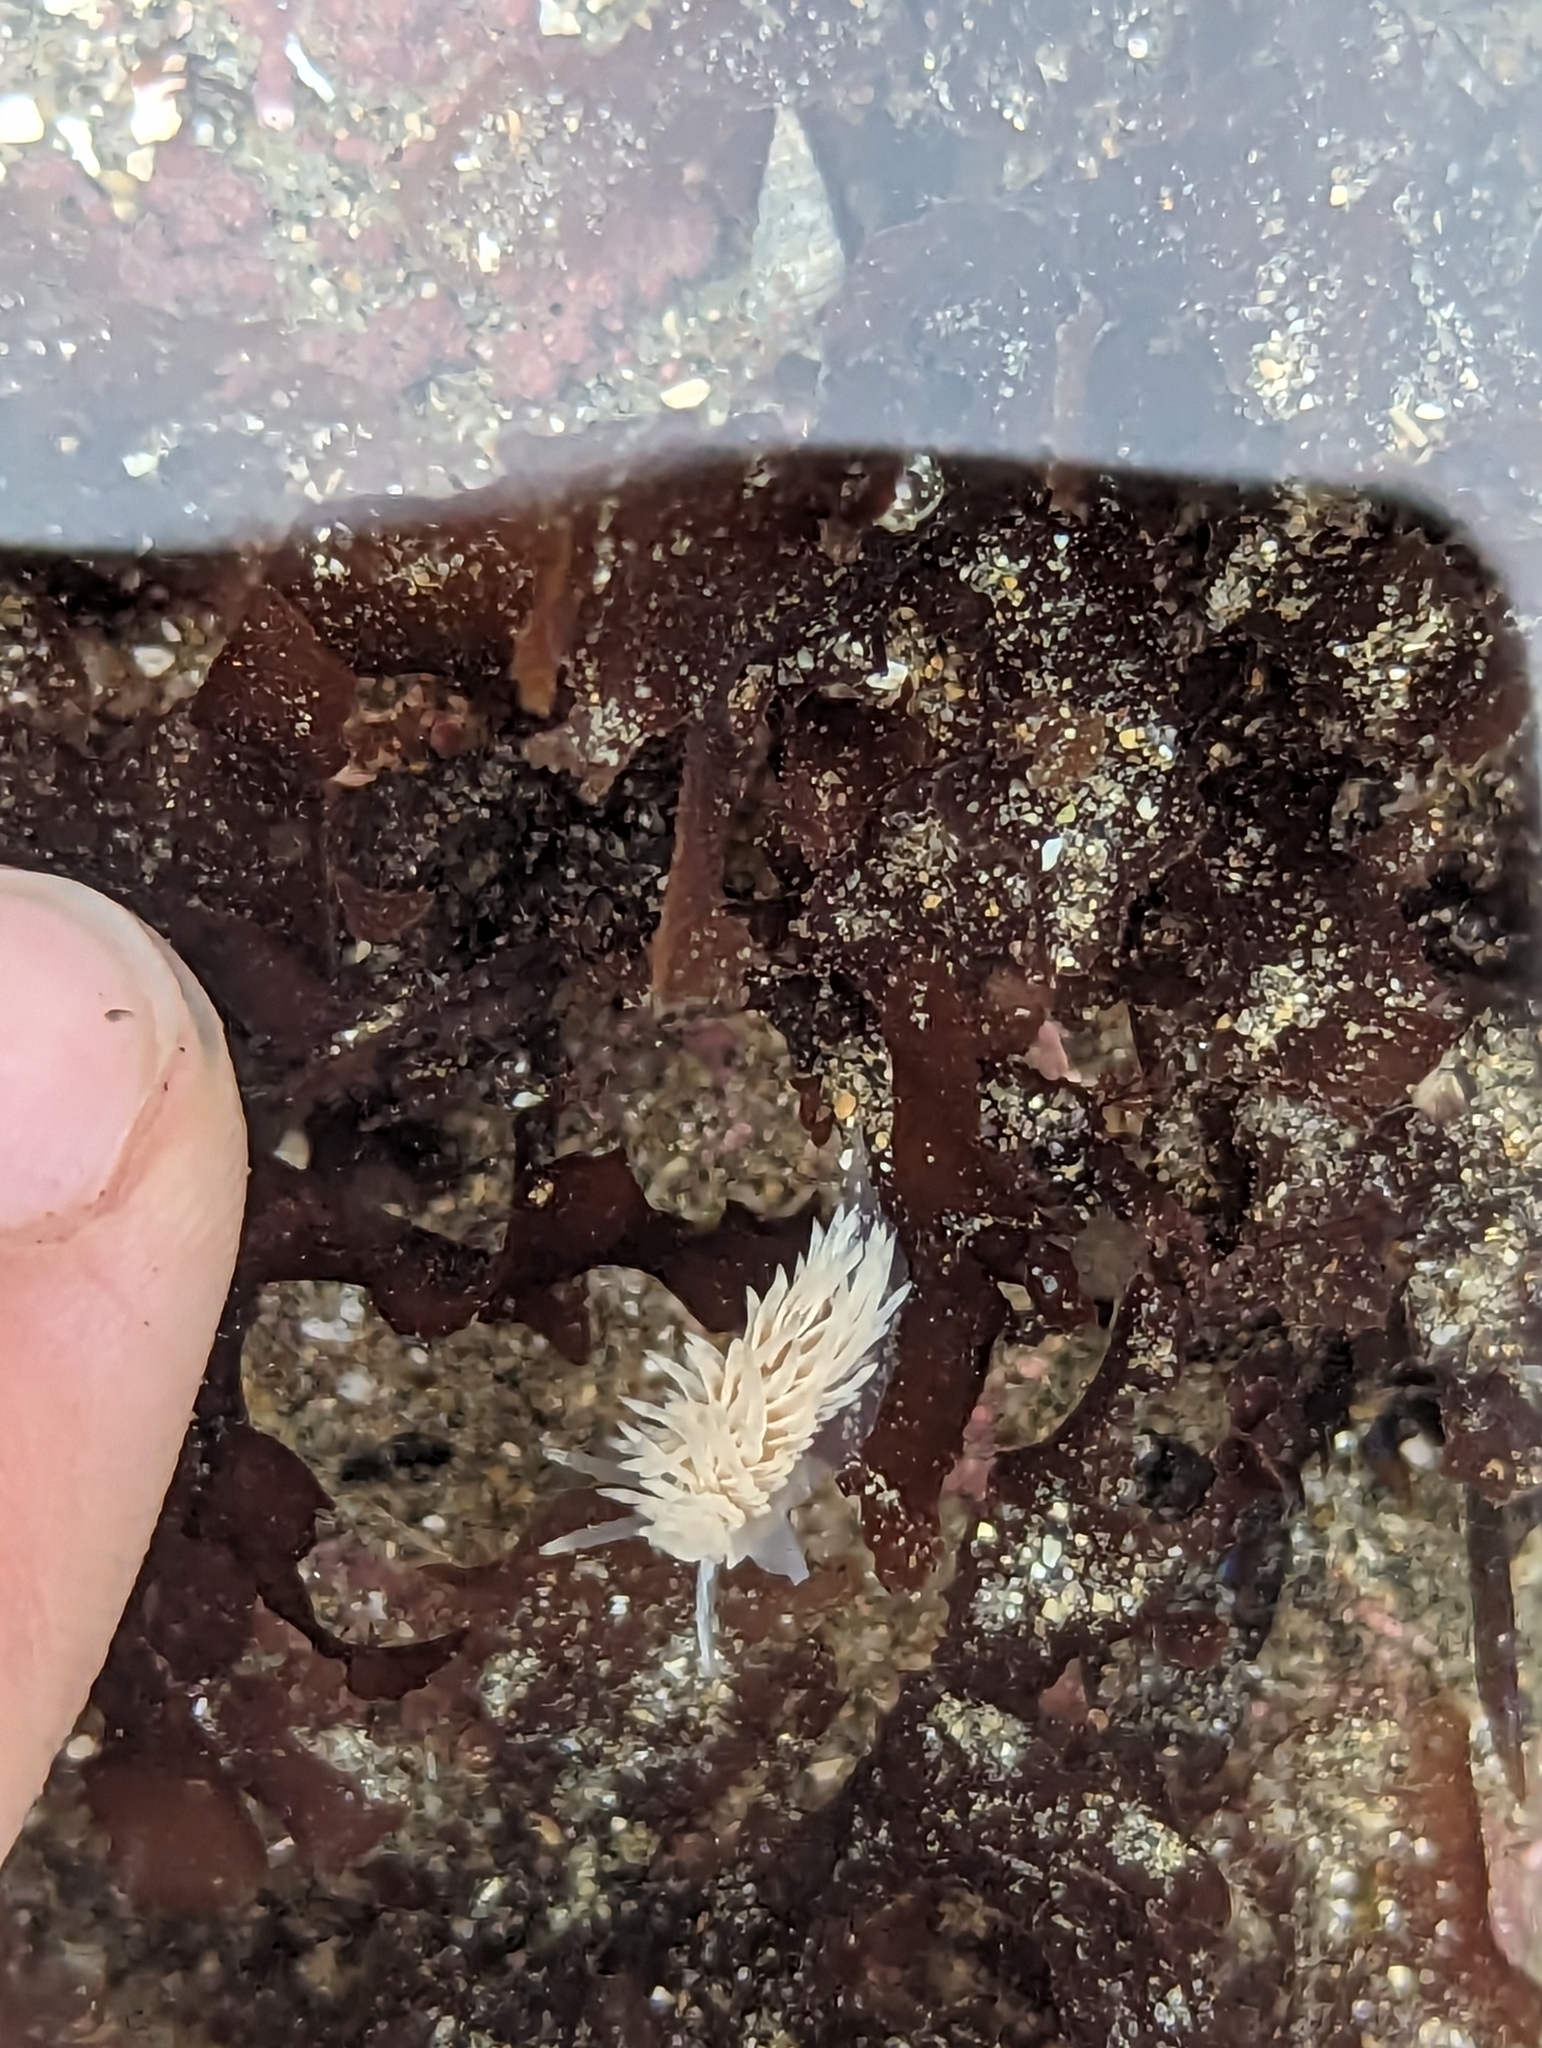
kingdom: Animalia
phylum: Mollusca
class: Gastropoda
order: Nudibranchia
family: Aeolidiidae
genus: Aeolidia
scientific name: Aeolidia loui
